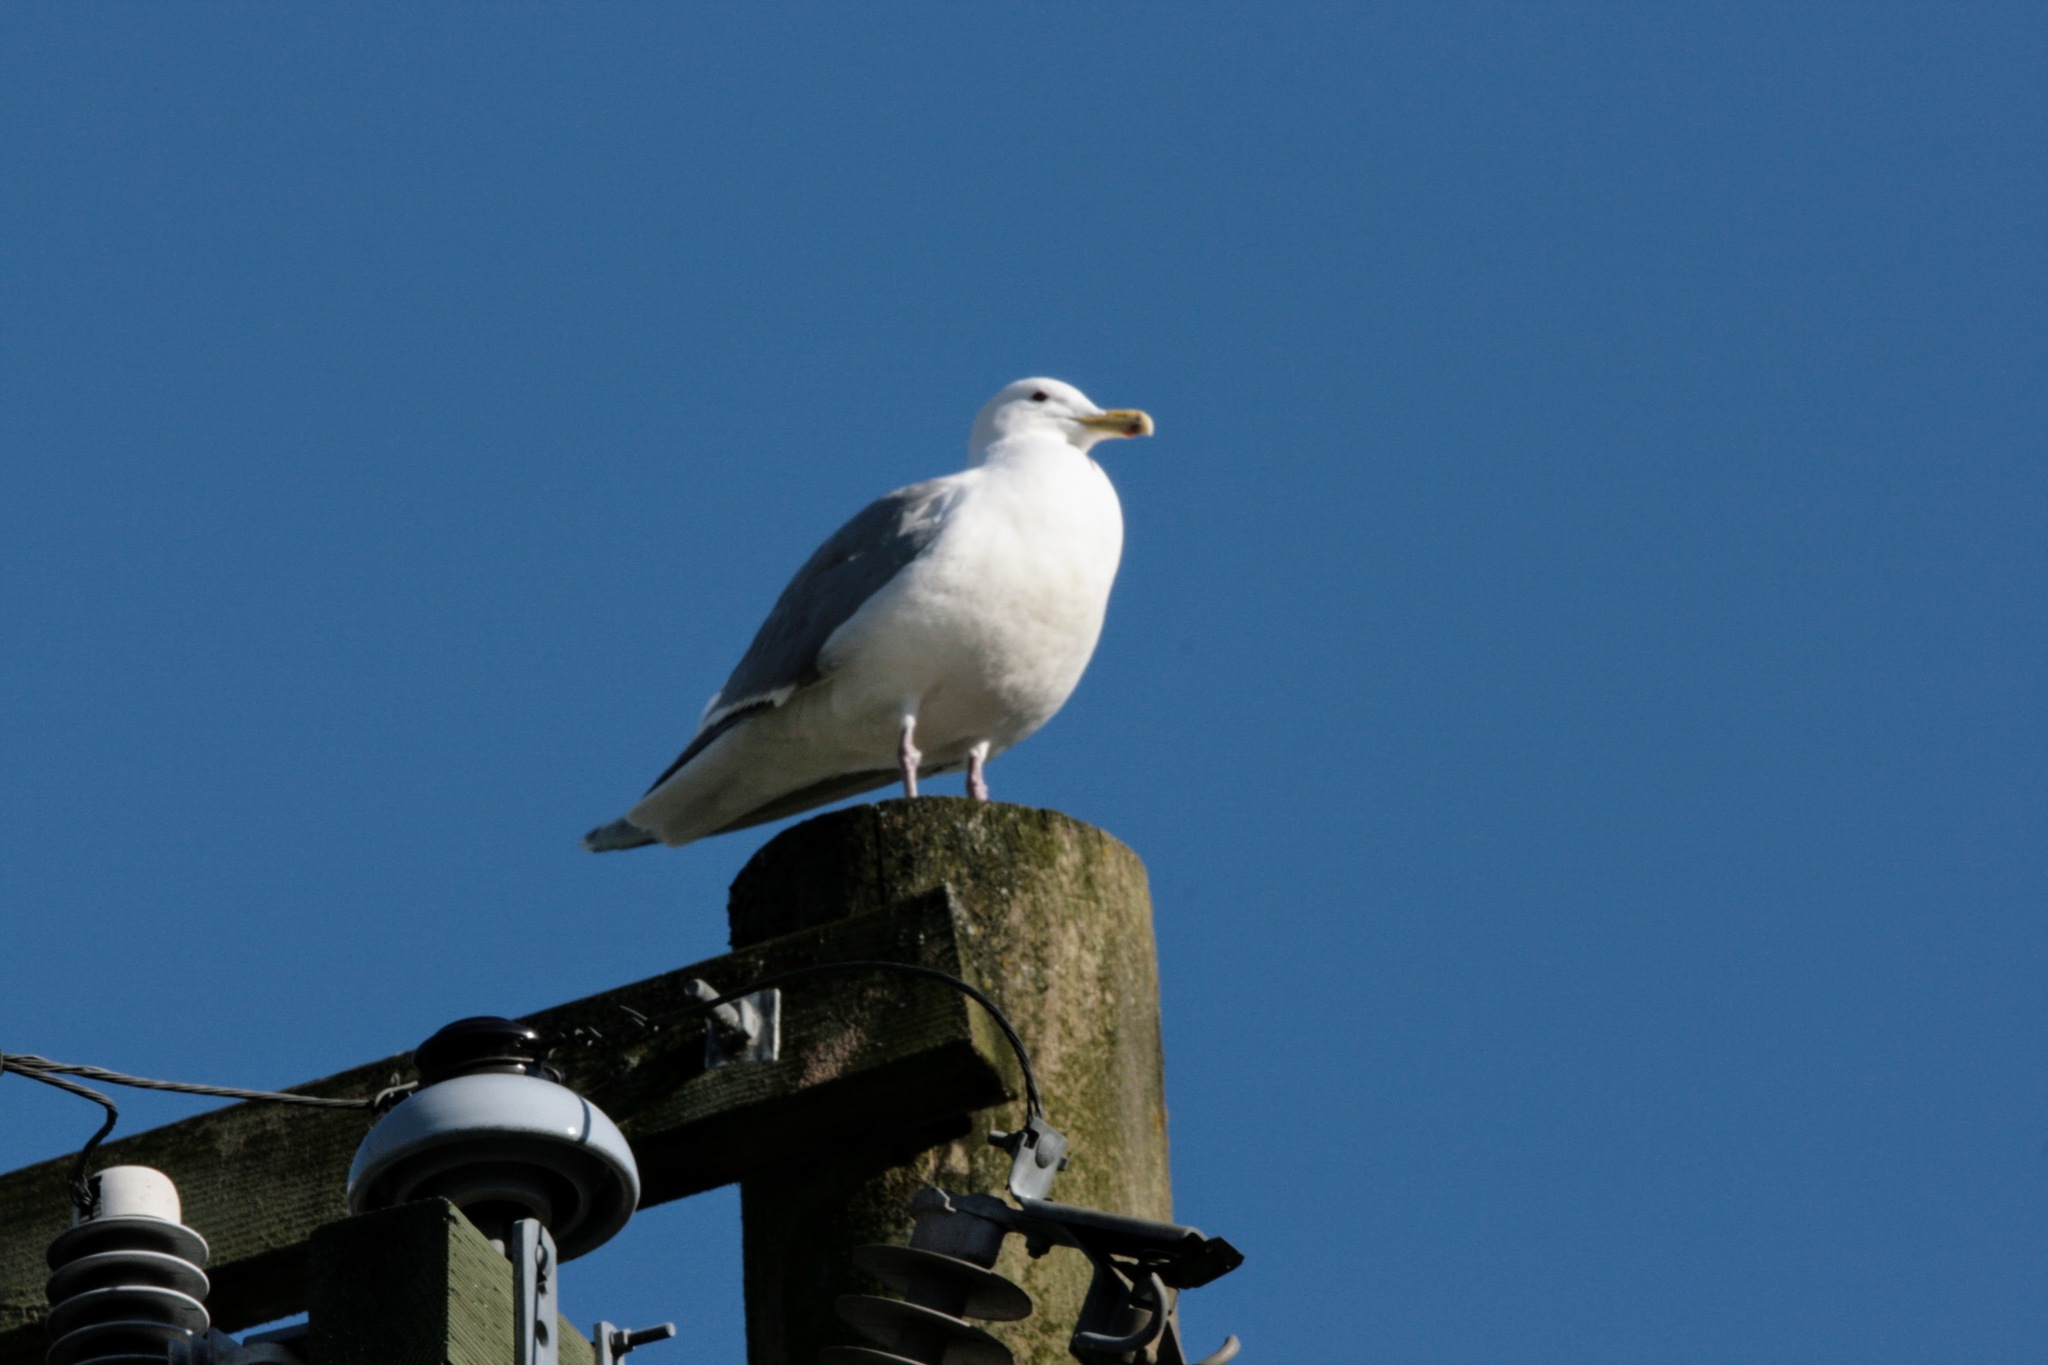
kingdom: Animalia
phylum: Chordata
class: Aves
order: Charadriiformes
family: Laridae
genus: Larus
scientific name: Larus glaucescens
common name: Glaucous-winged gull
